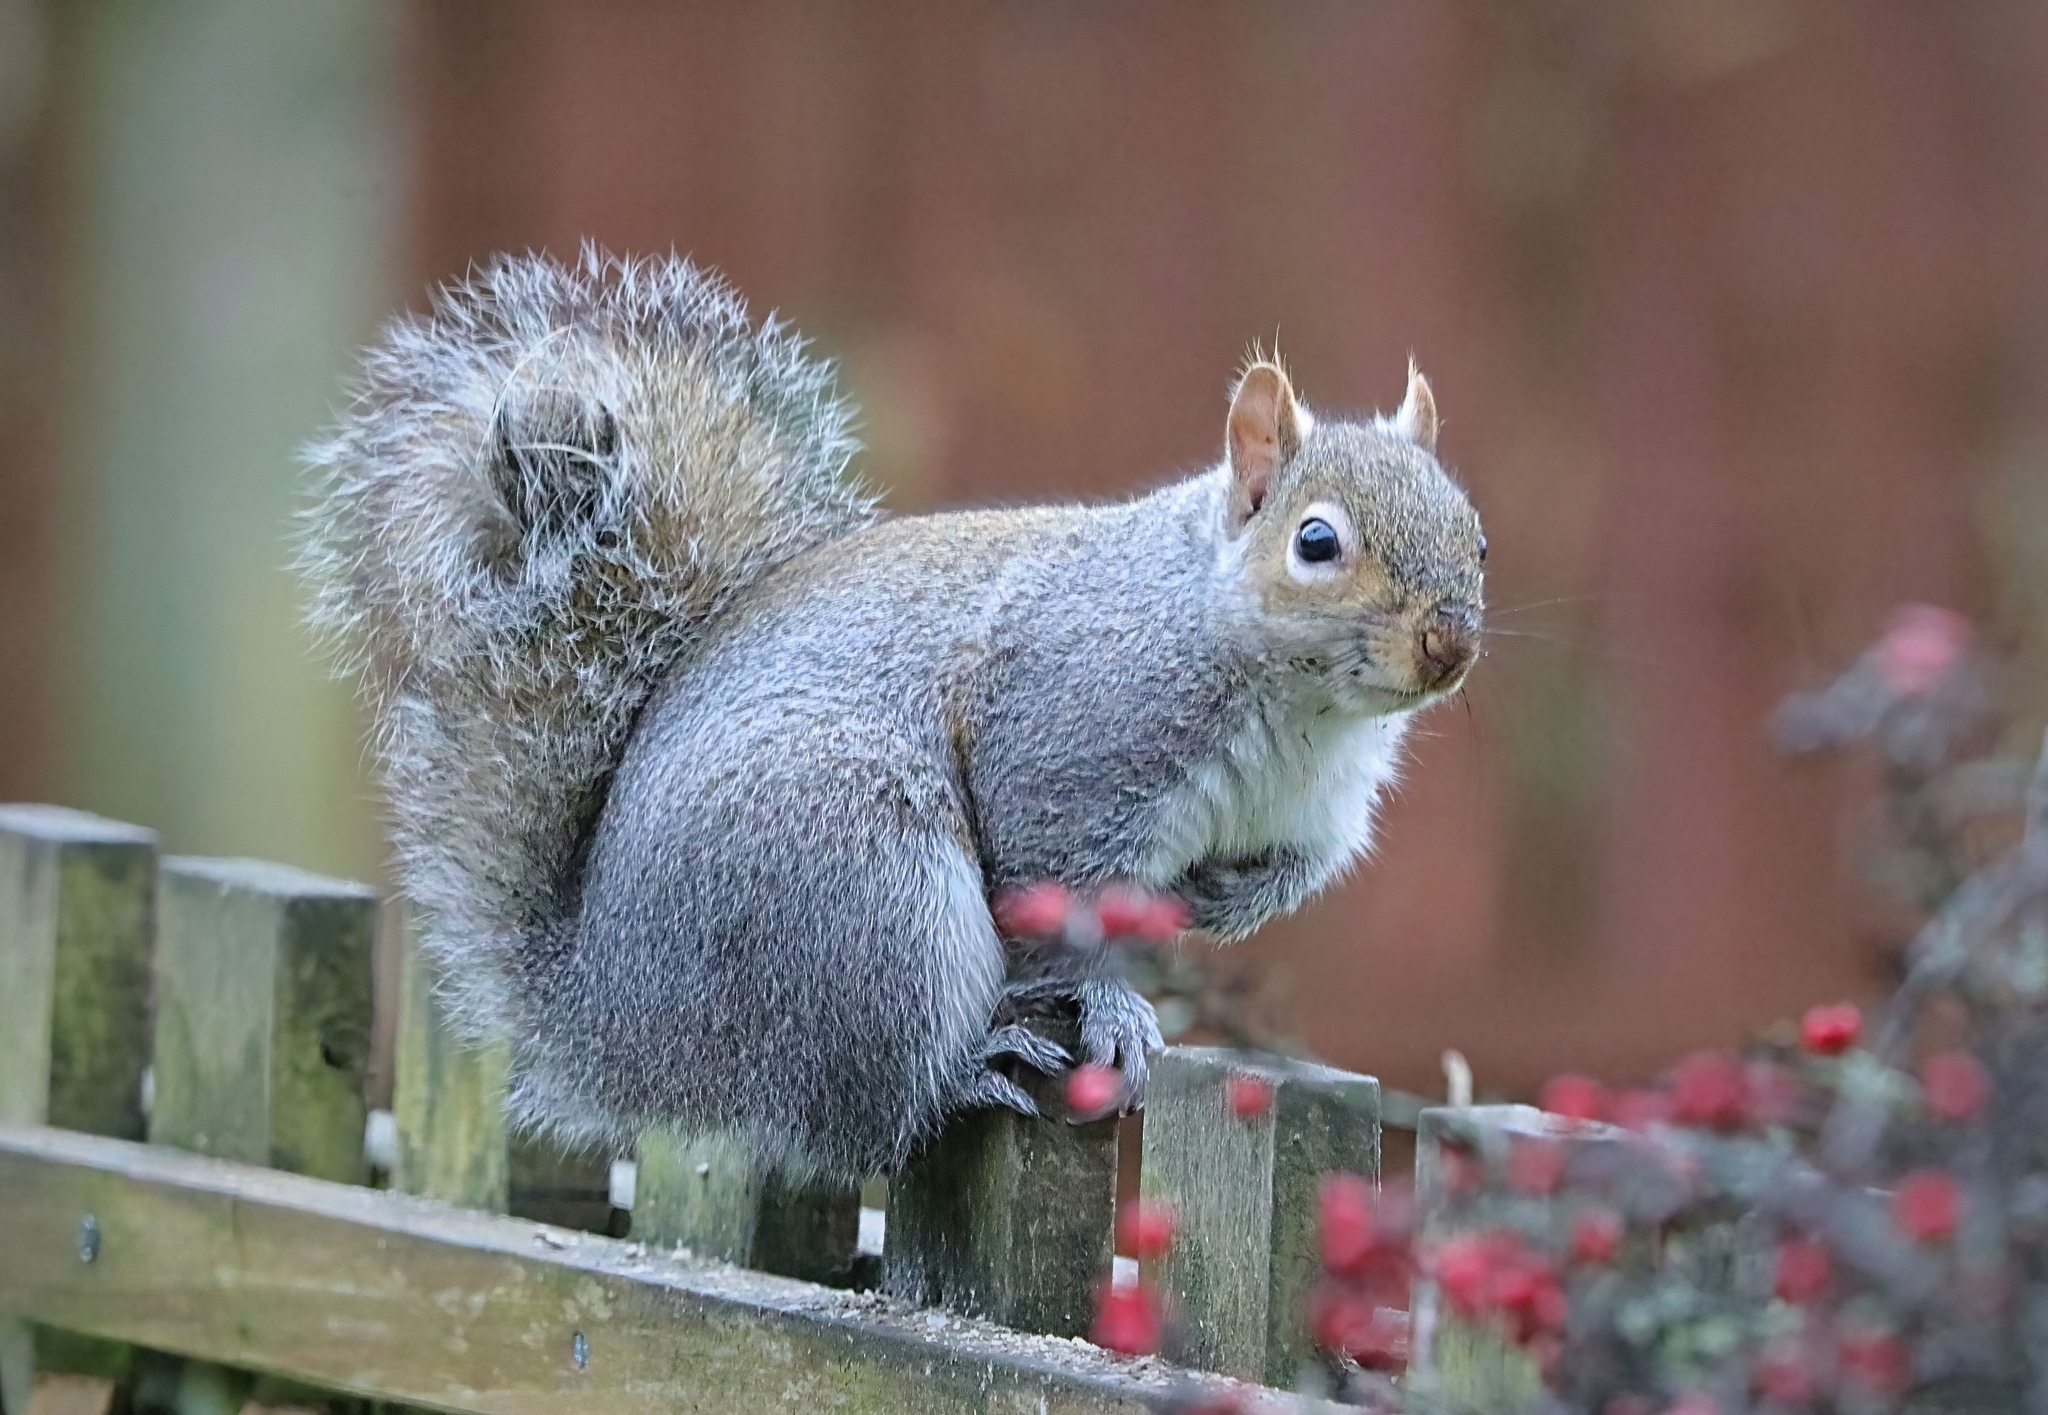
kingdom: Animalia
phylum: Chordata
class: Mammalia
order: Rodentia
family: Sciuridae
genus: Sciurus
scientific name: Sciurus carolinensis
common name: Eastern gray squirrel
